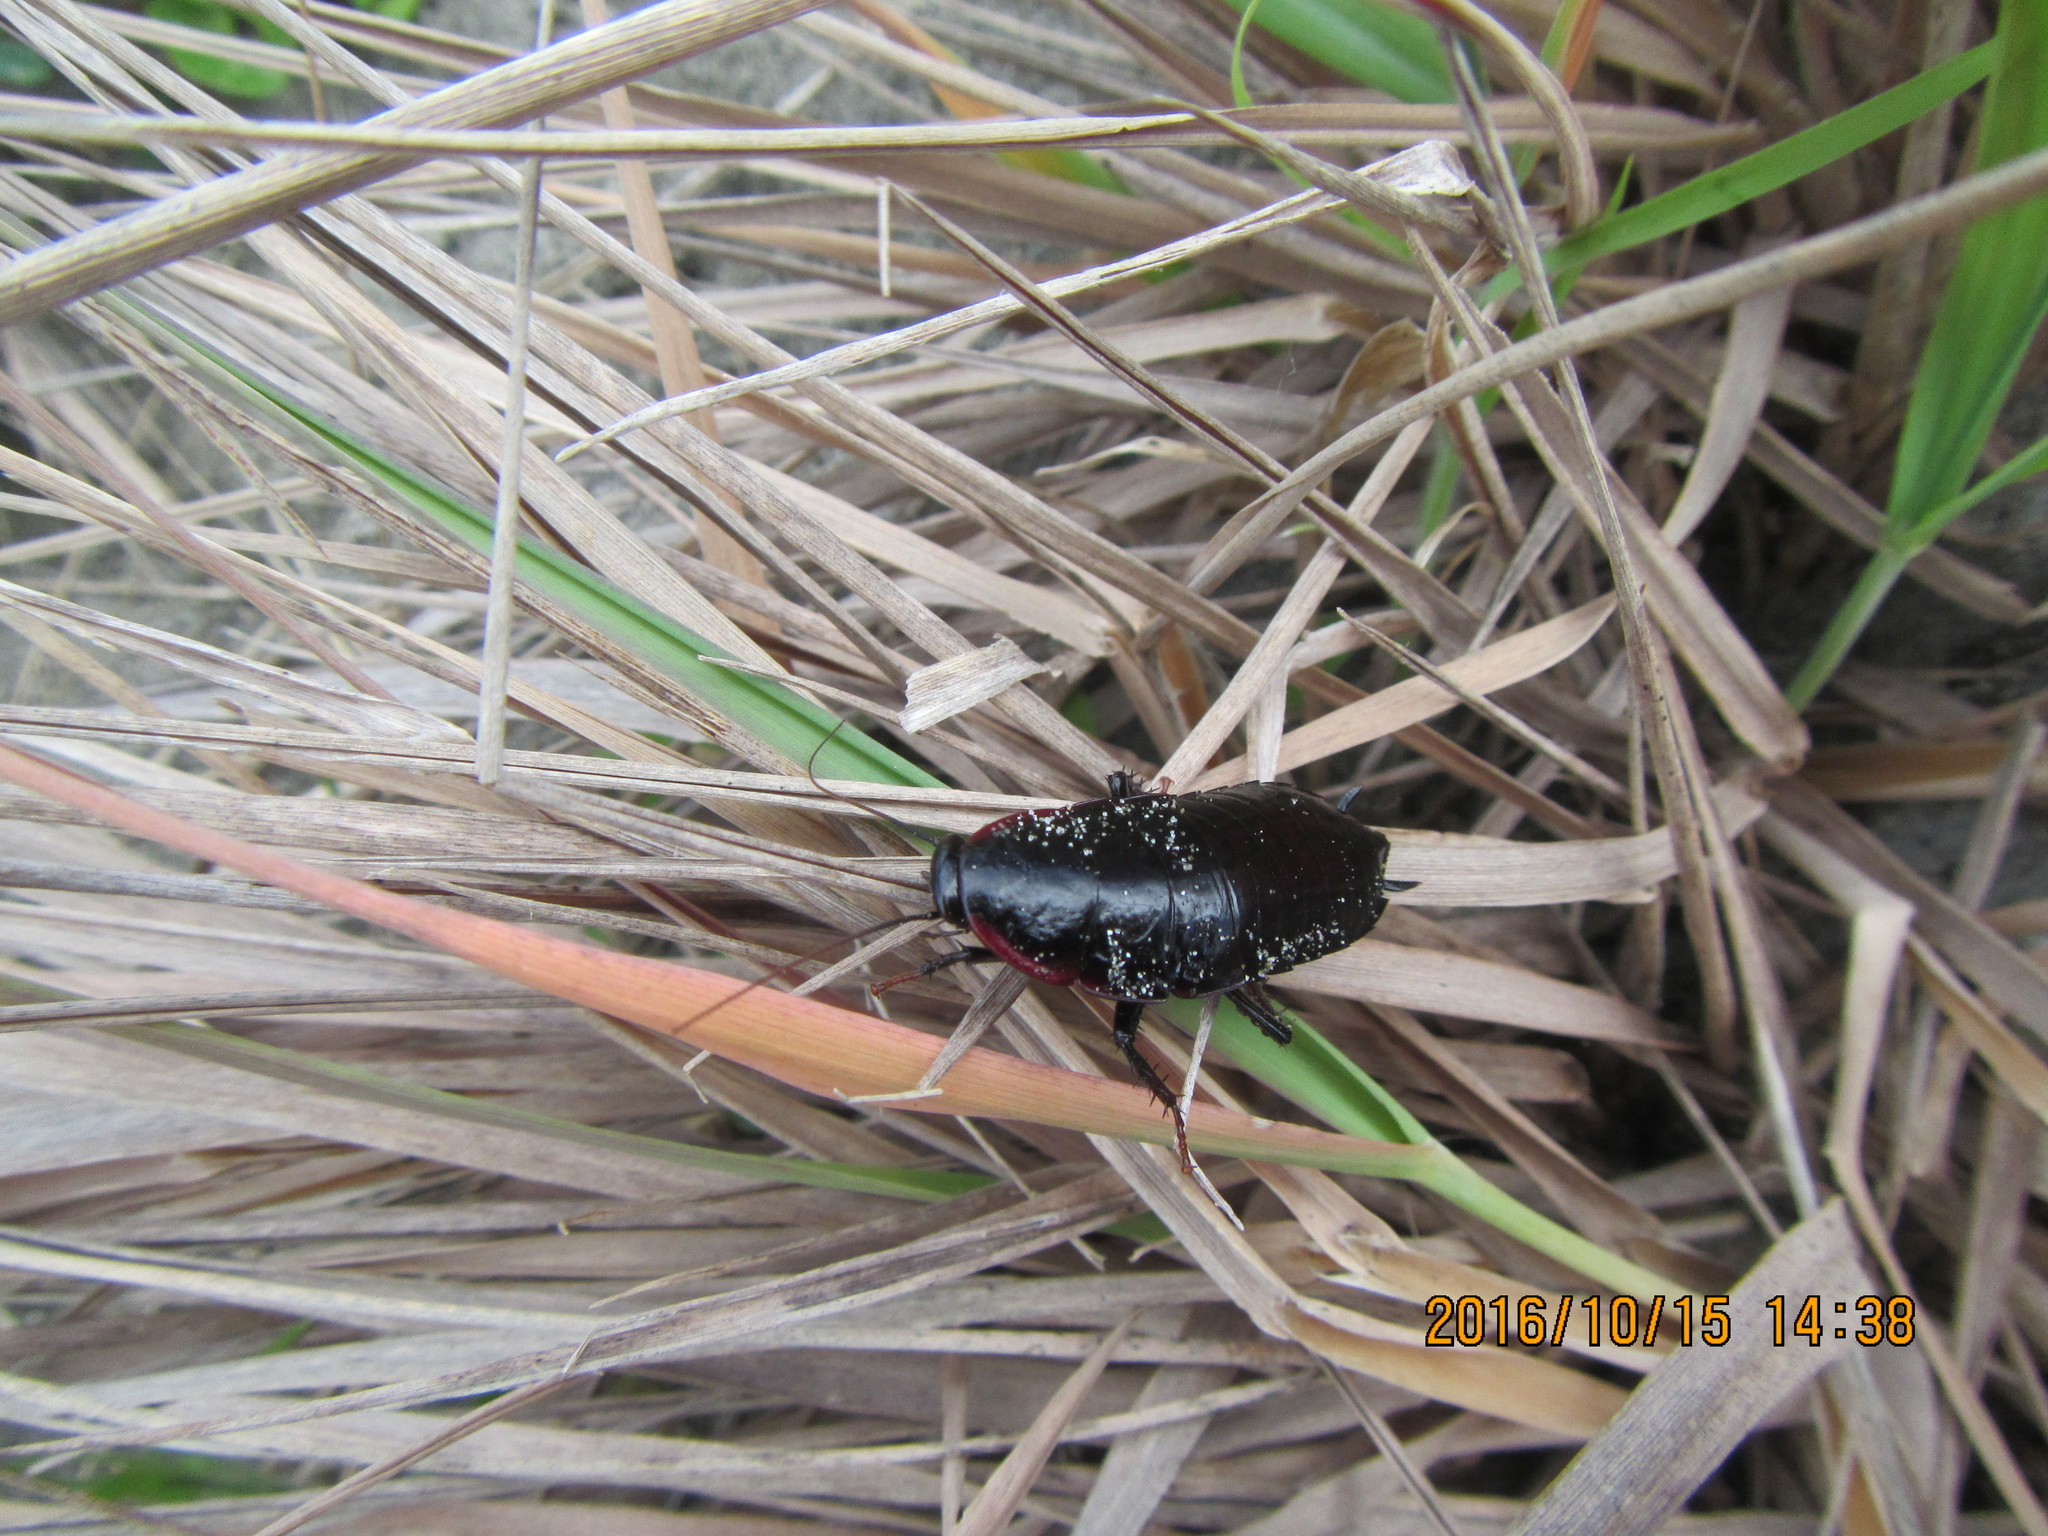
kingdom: Animalia
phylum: Arthropoda
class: Insecta
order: Blattodea
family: Blattidae
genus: Maoriblatta
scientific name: Maoriblatta novaeseelandiae
